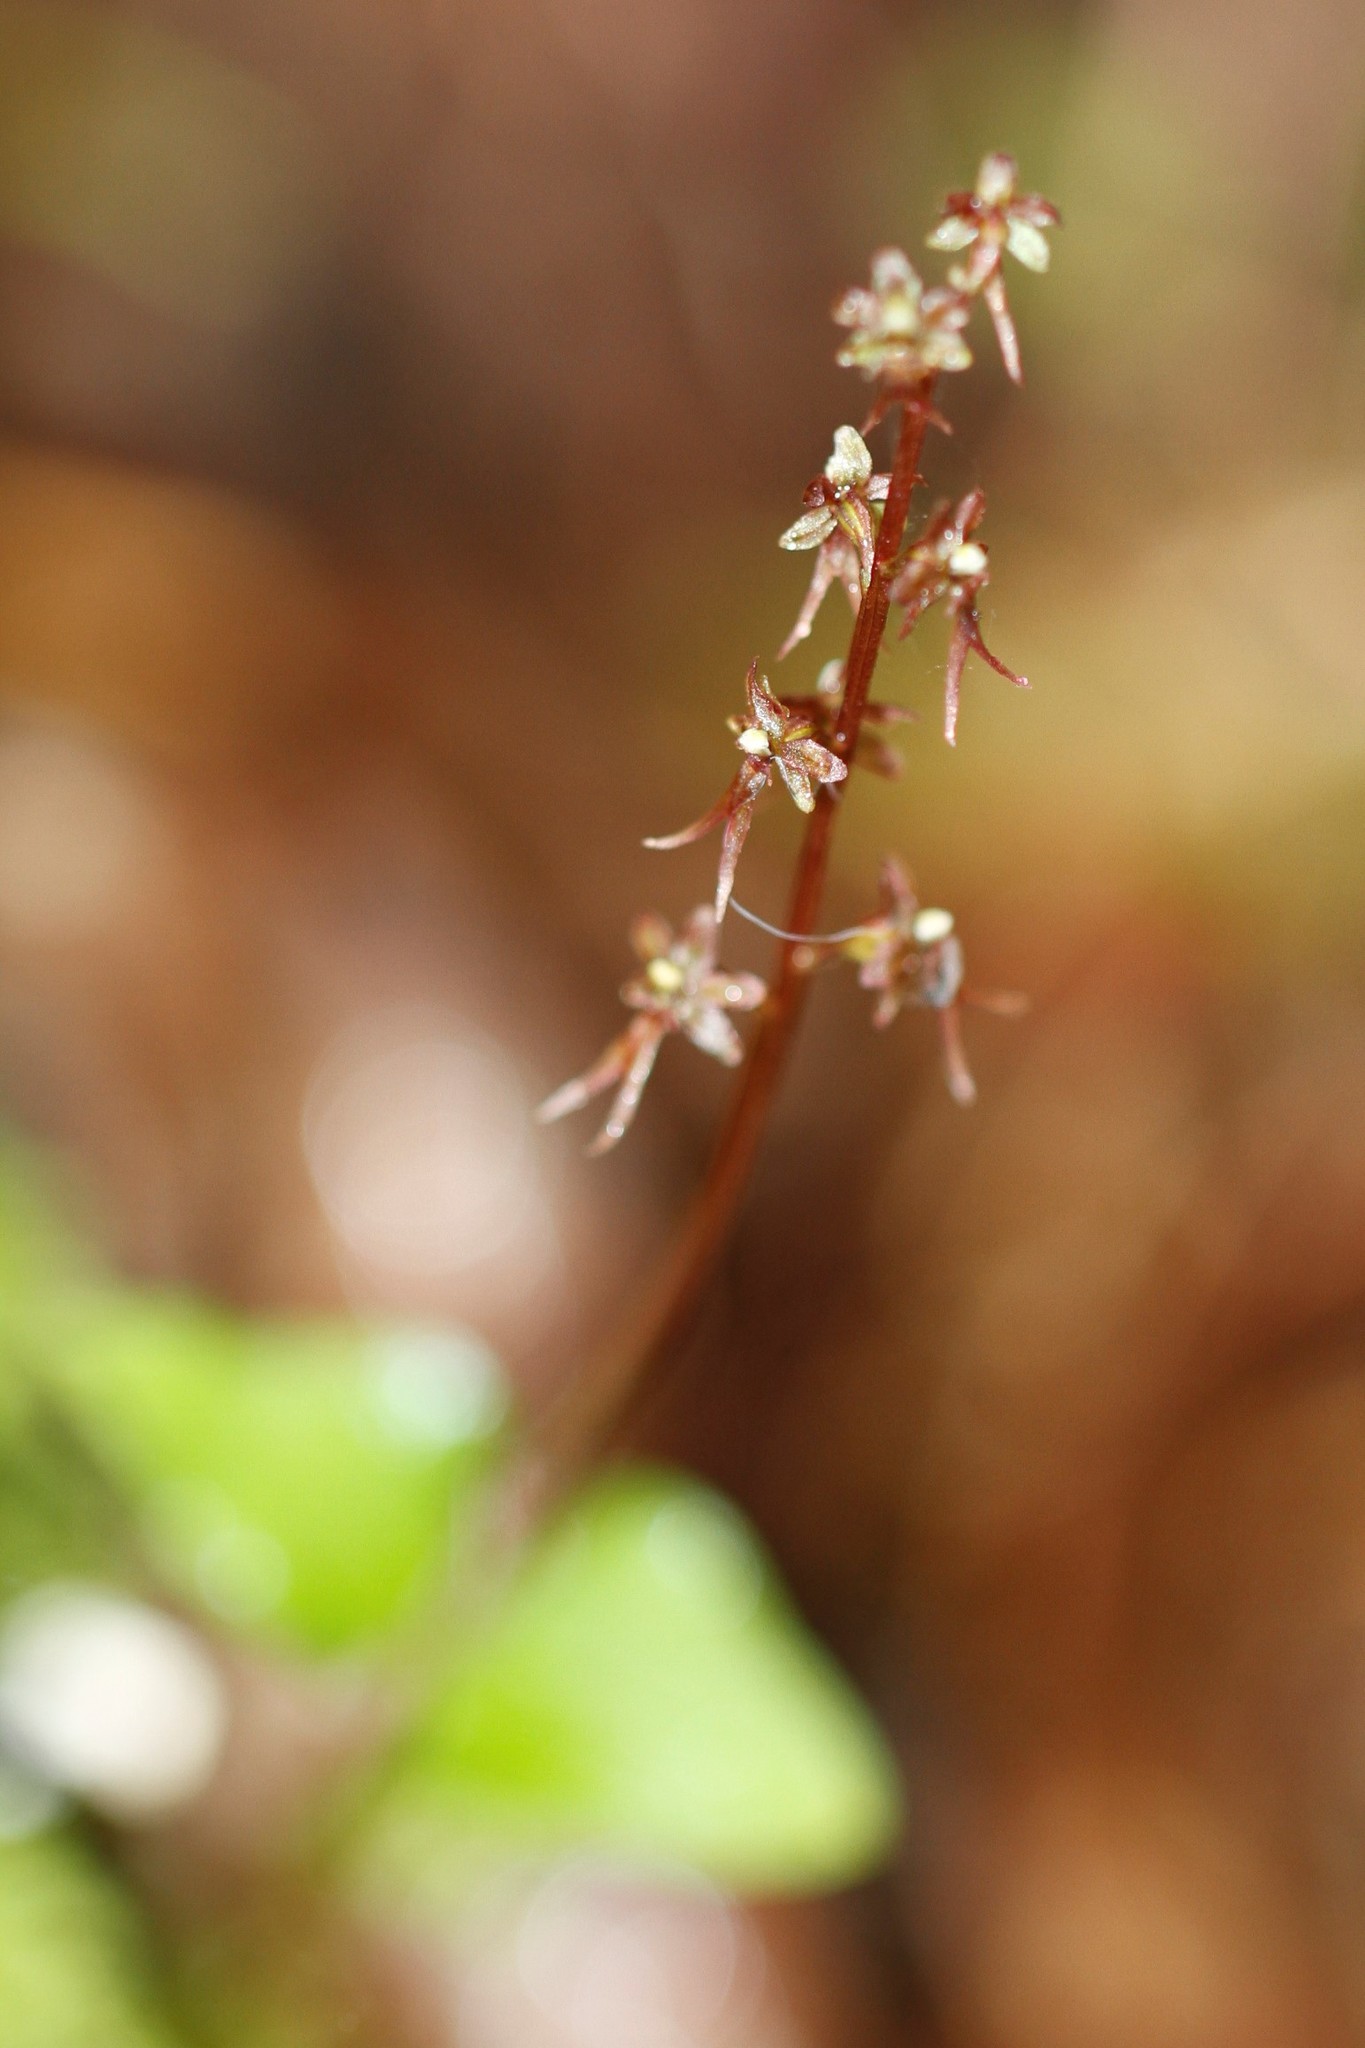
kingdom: Plantae
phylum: Tracheophyta
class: Liliopsida
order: Asparagales
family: Orchidaceae
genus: Neottia
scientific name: Neottia cordata
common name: Lesser twayblade
